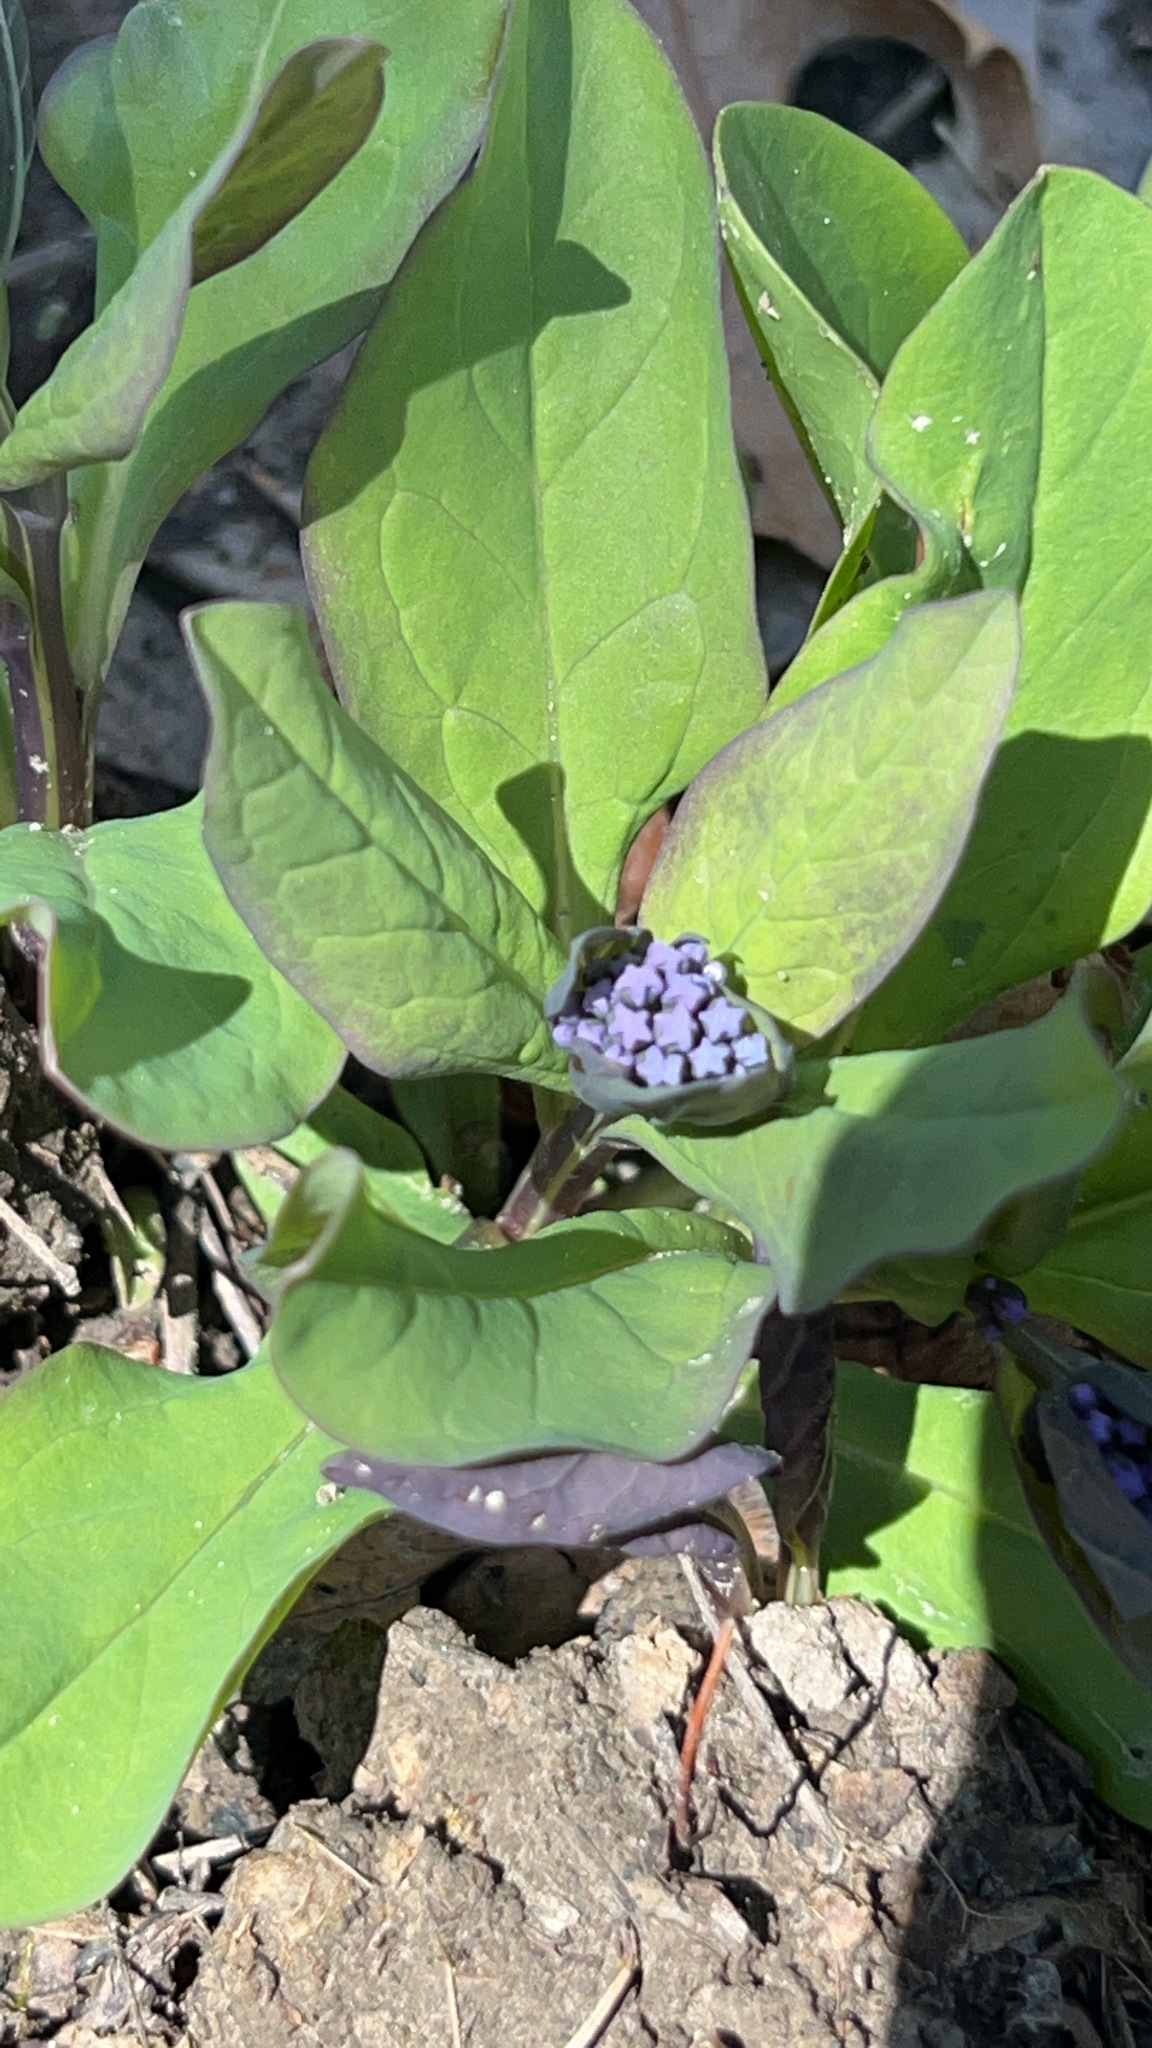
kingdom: Plantae
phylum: Tracheophyta
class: Magnoliopsida
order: Boraginales
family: Boraginaceae
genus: Mertensia
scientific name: Mertensia virginica
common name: Virginia bluebells
